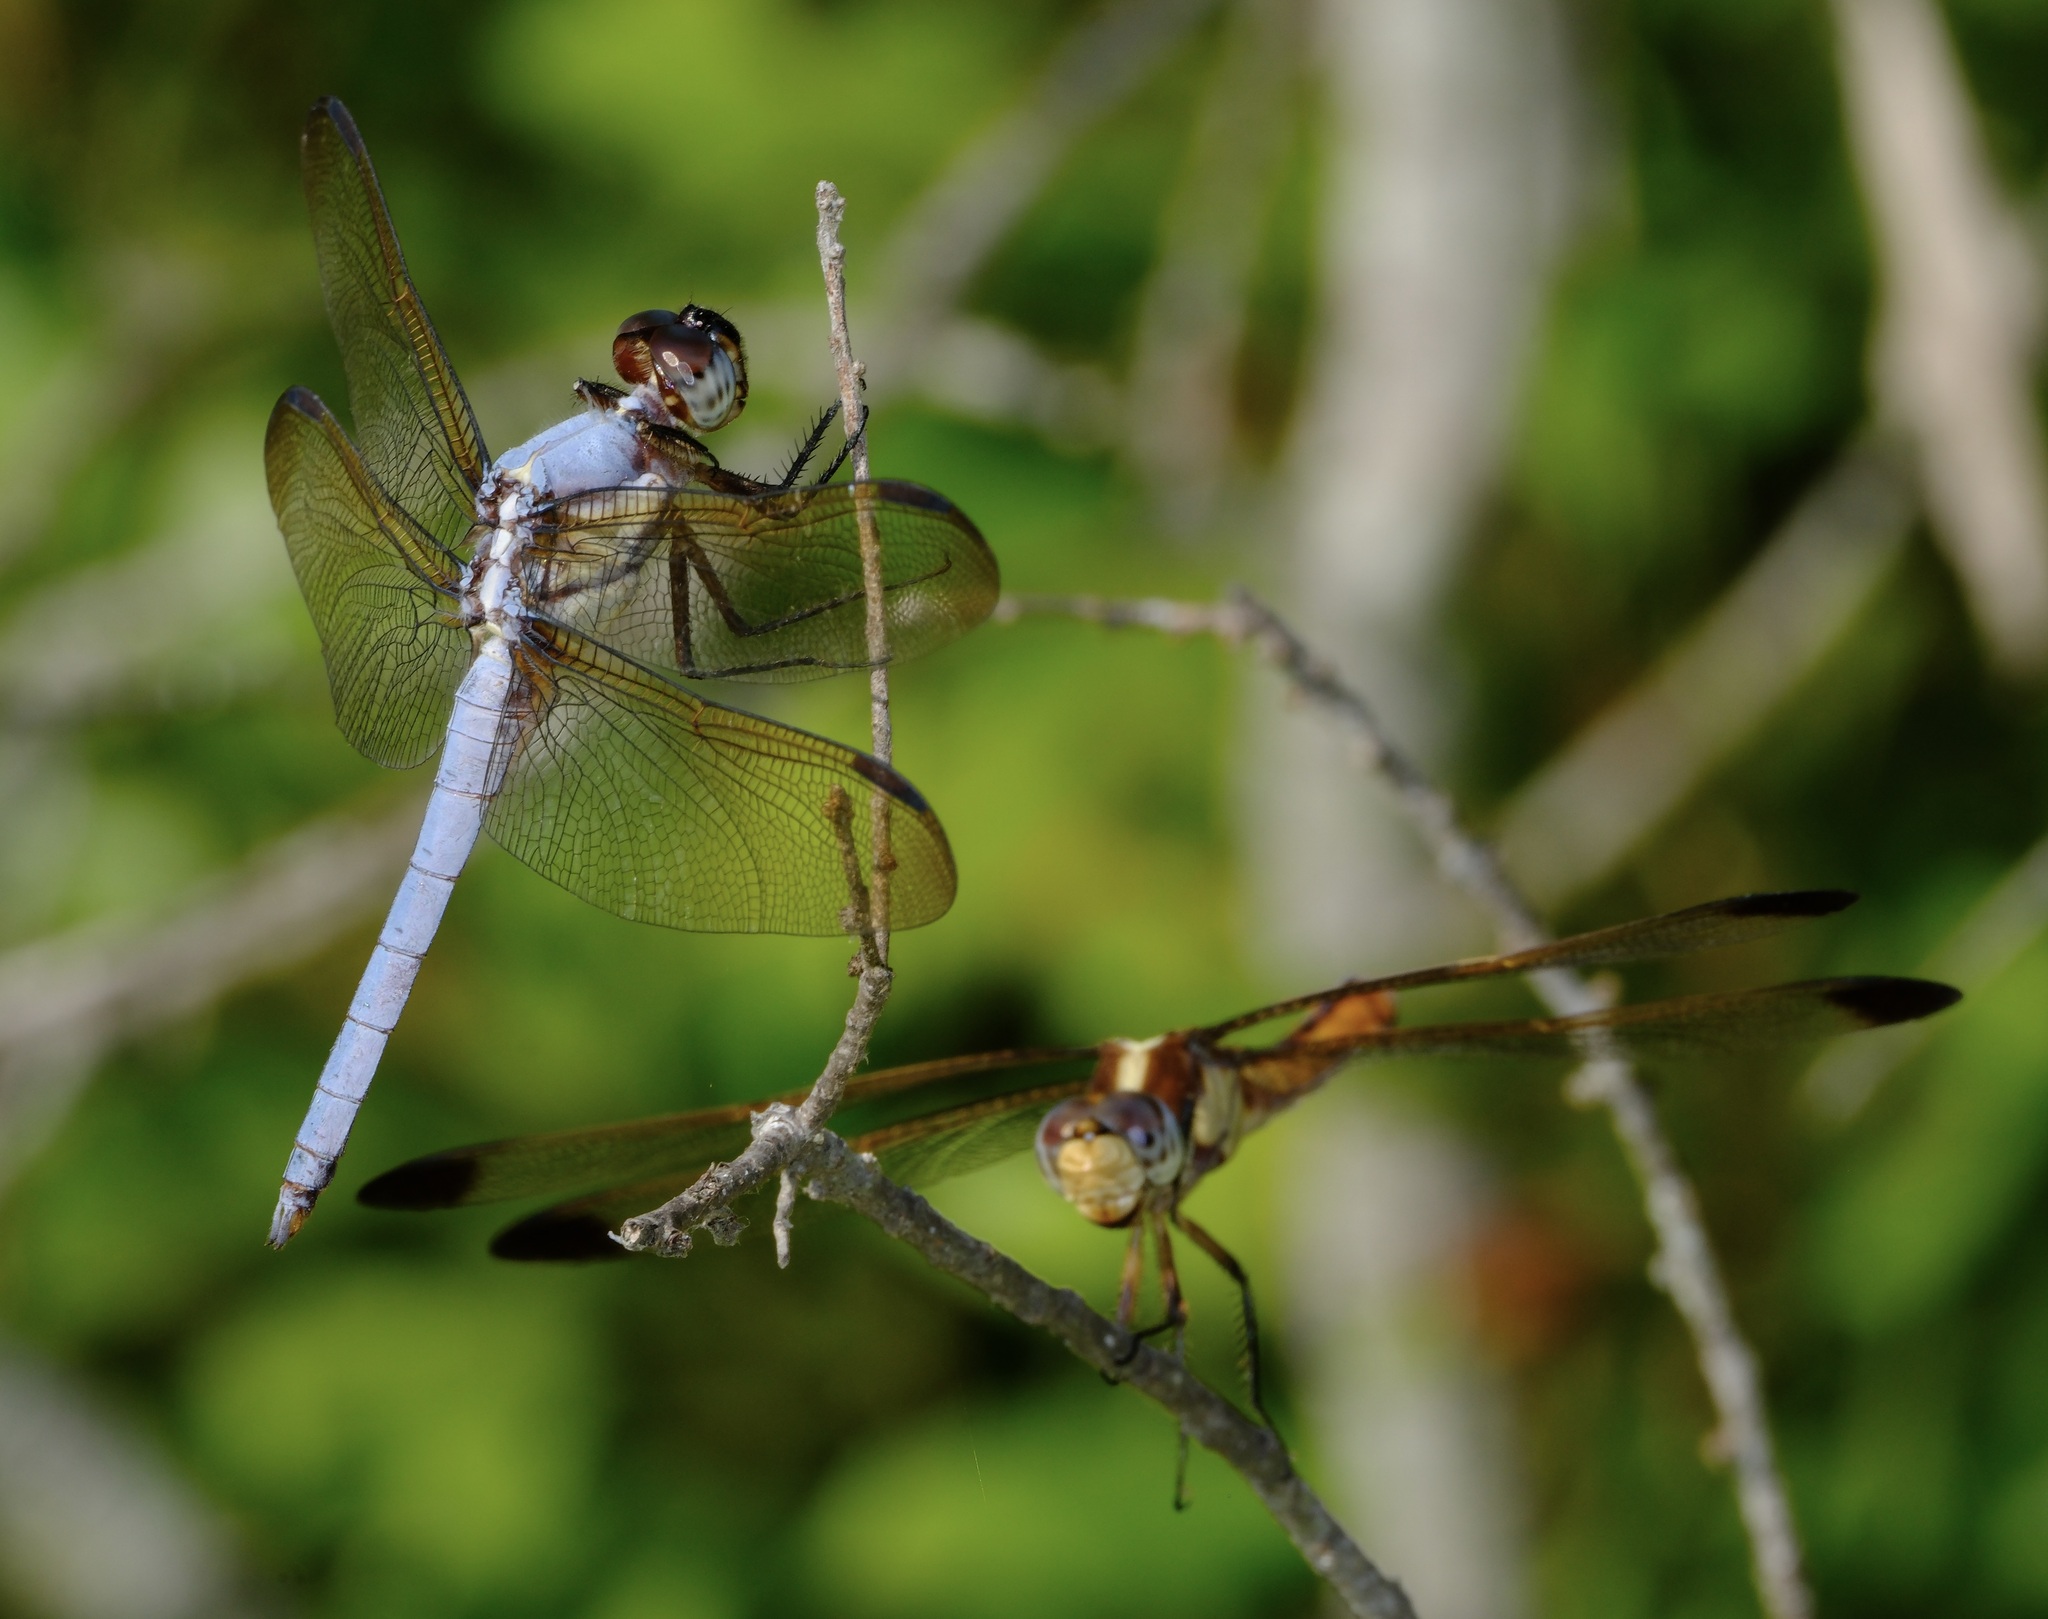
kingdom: Animalia
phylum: Arthropoda
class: Insecta
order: Odonata
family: Libellulidae
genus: Libellula
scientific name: Libellula flavida
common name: Yellow-sided skimmer
